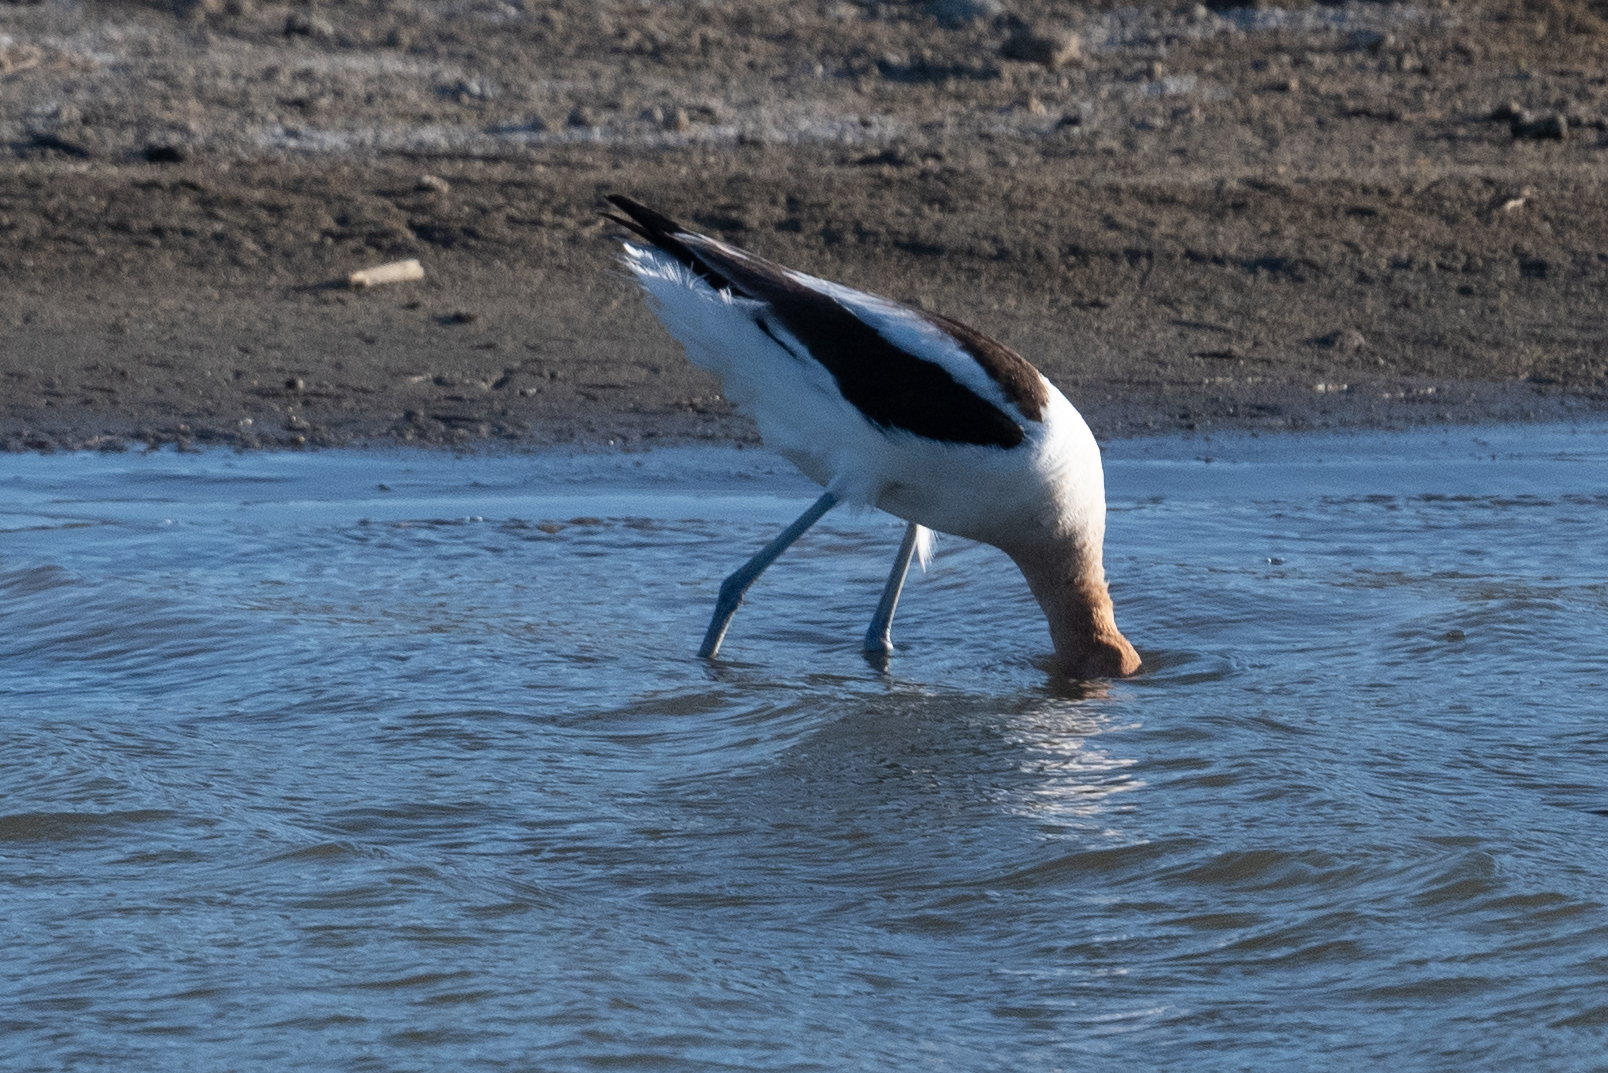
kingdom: Animalia
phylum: Chordata
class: Aves
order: Charadriiformes
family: Recurvirostridae
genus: Recurvirostra
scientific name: Recurvirostra americana
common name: American avocet
